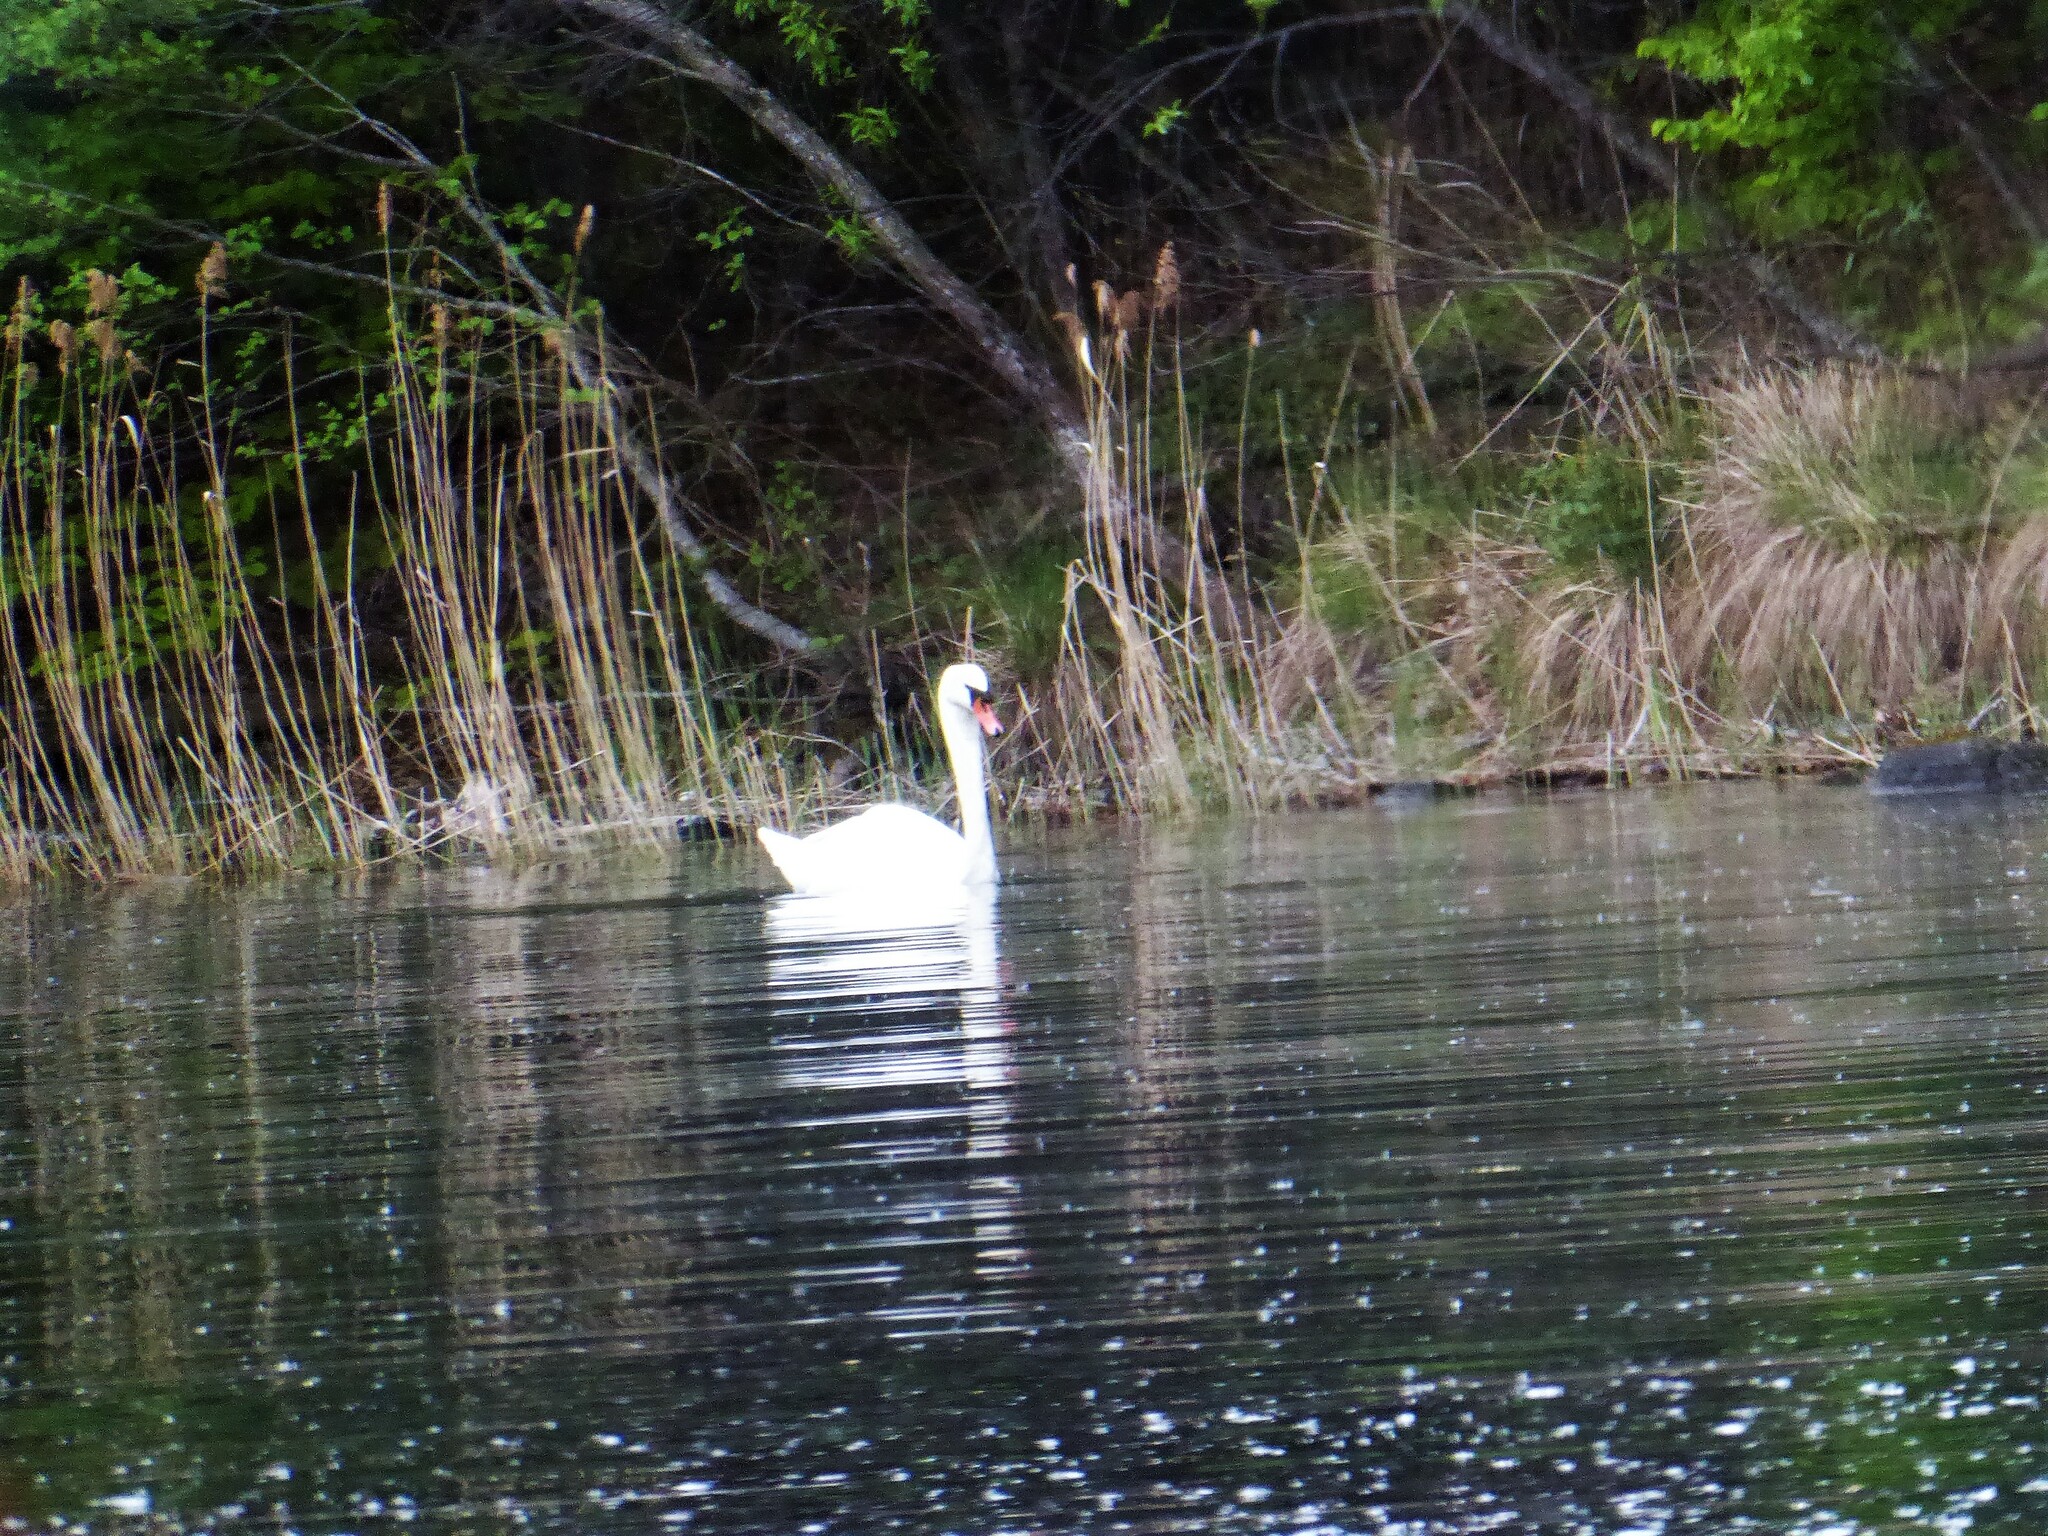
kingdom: Animalia
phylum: Chordata
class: Aves
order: Anseriformes
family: Anatidae
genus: Cygnus
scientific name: Cygnus olor
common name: Mute swan
